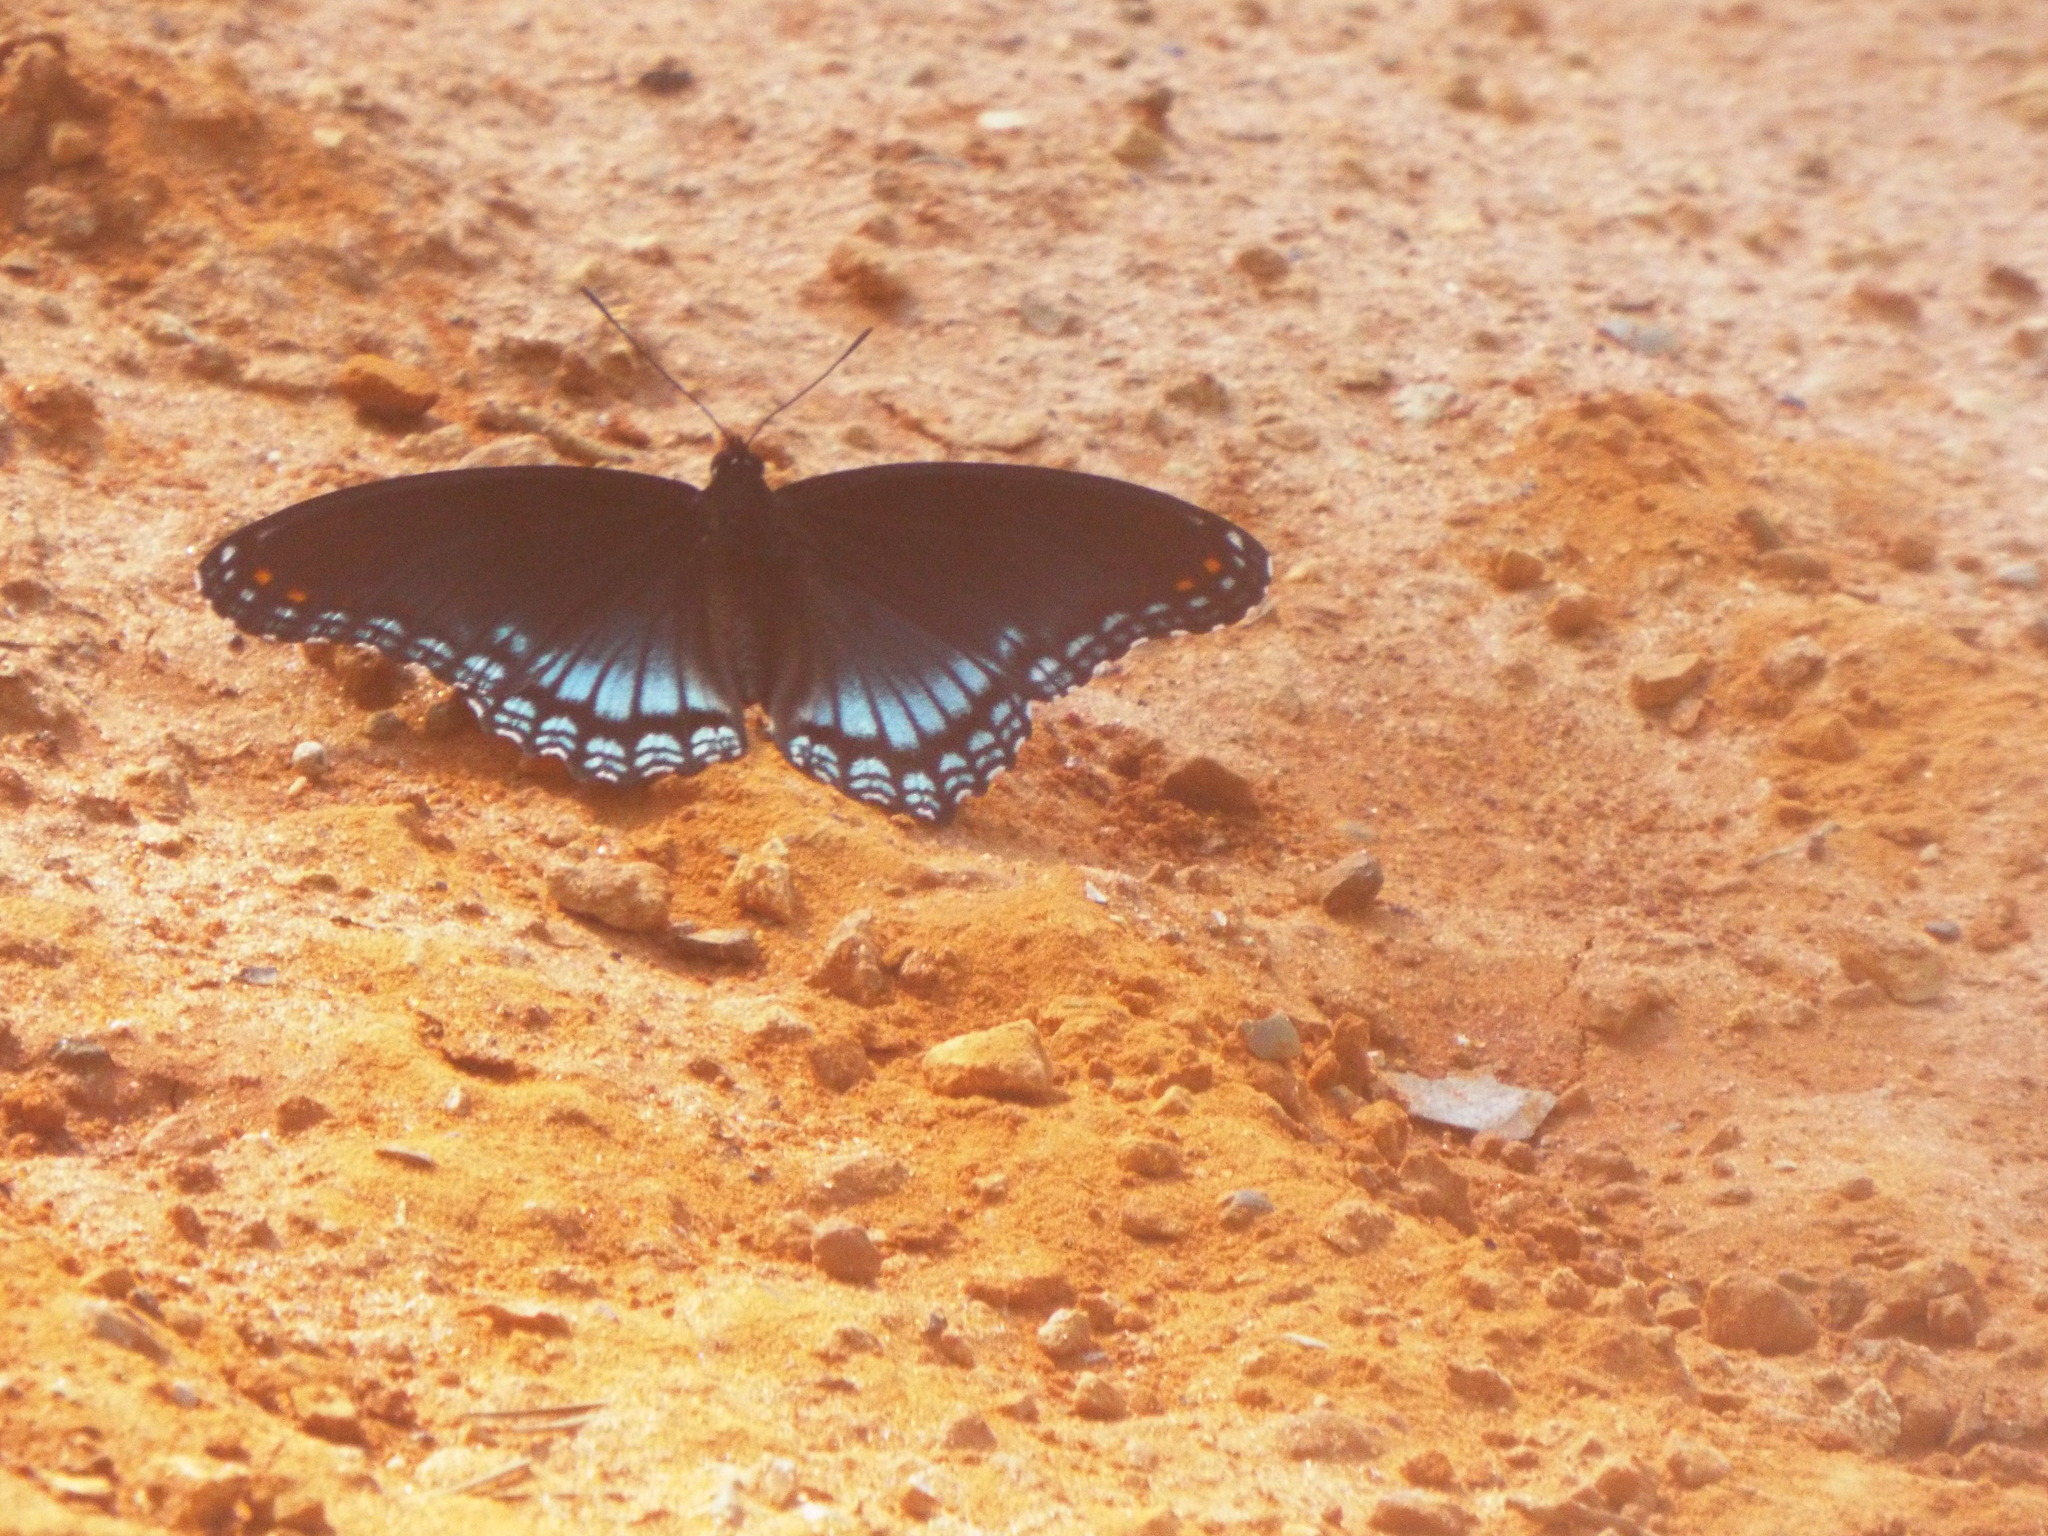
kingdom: Animalia
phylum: Arthropoda
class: Insecta
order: Lepidoptera
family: Nymphalidae
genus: Limenitis
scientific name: Limenitis arthemis
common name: Red-spotted admiral
